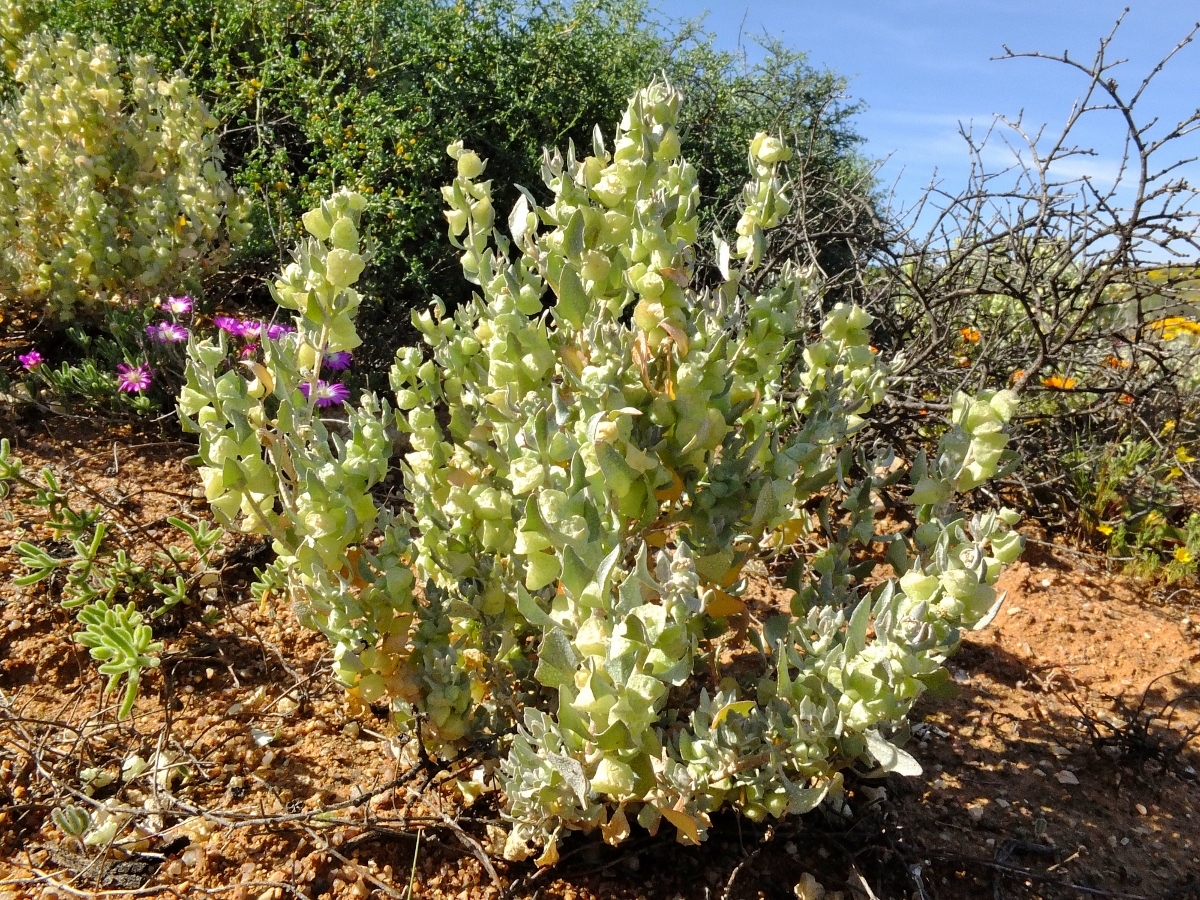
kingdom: Plantae
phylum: Tracheophyta
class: Magnoliopsida
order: Caryophyllales
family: Amaranthaceae
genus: Atriplex
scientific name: Atriplex lindleyi
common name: Lindley's saltbush
